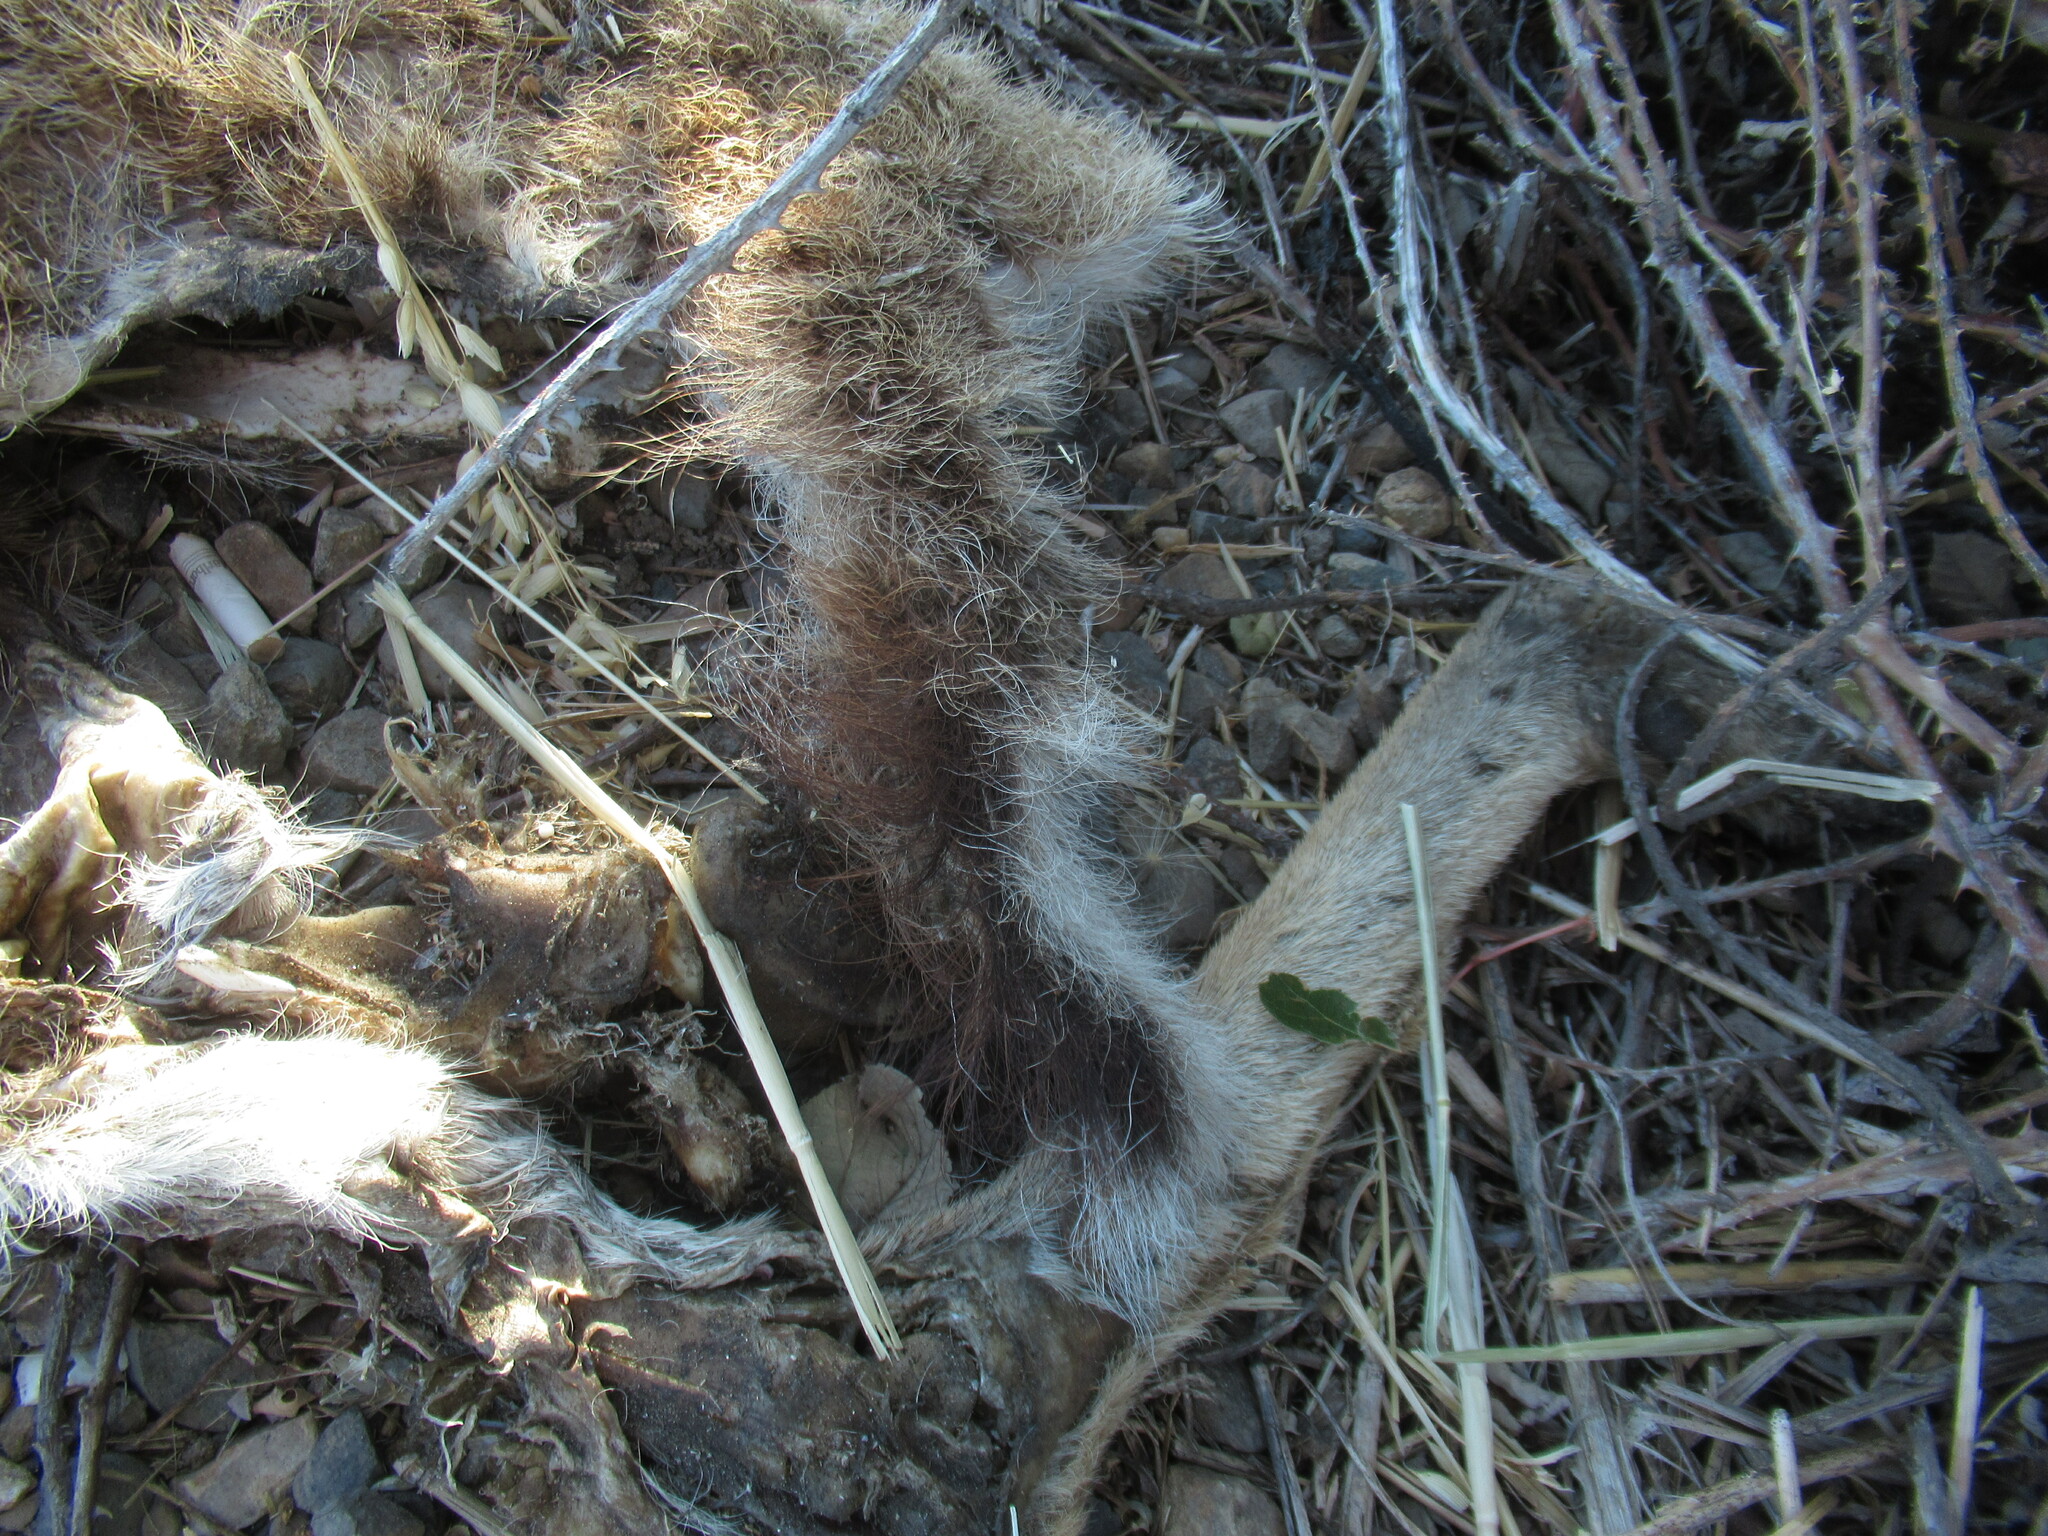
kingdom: Animalia
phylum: Chordata
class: Mammalia
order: Artiodactyla
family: Cervidae
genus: Odocoileus
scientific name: Odocoileus hemionus
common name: Mule deer
